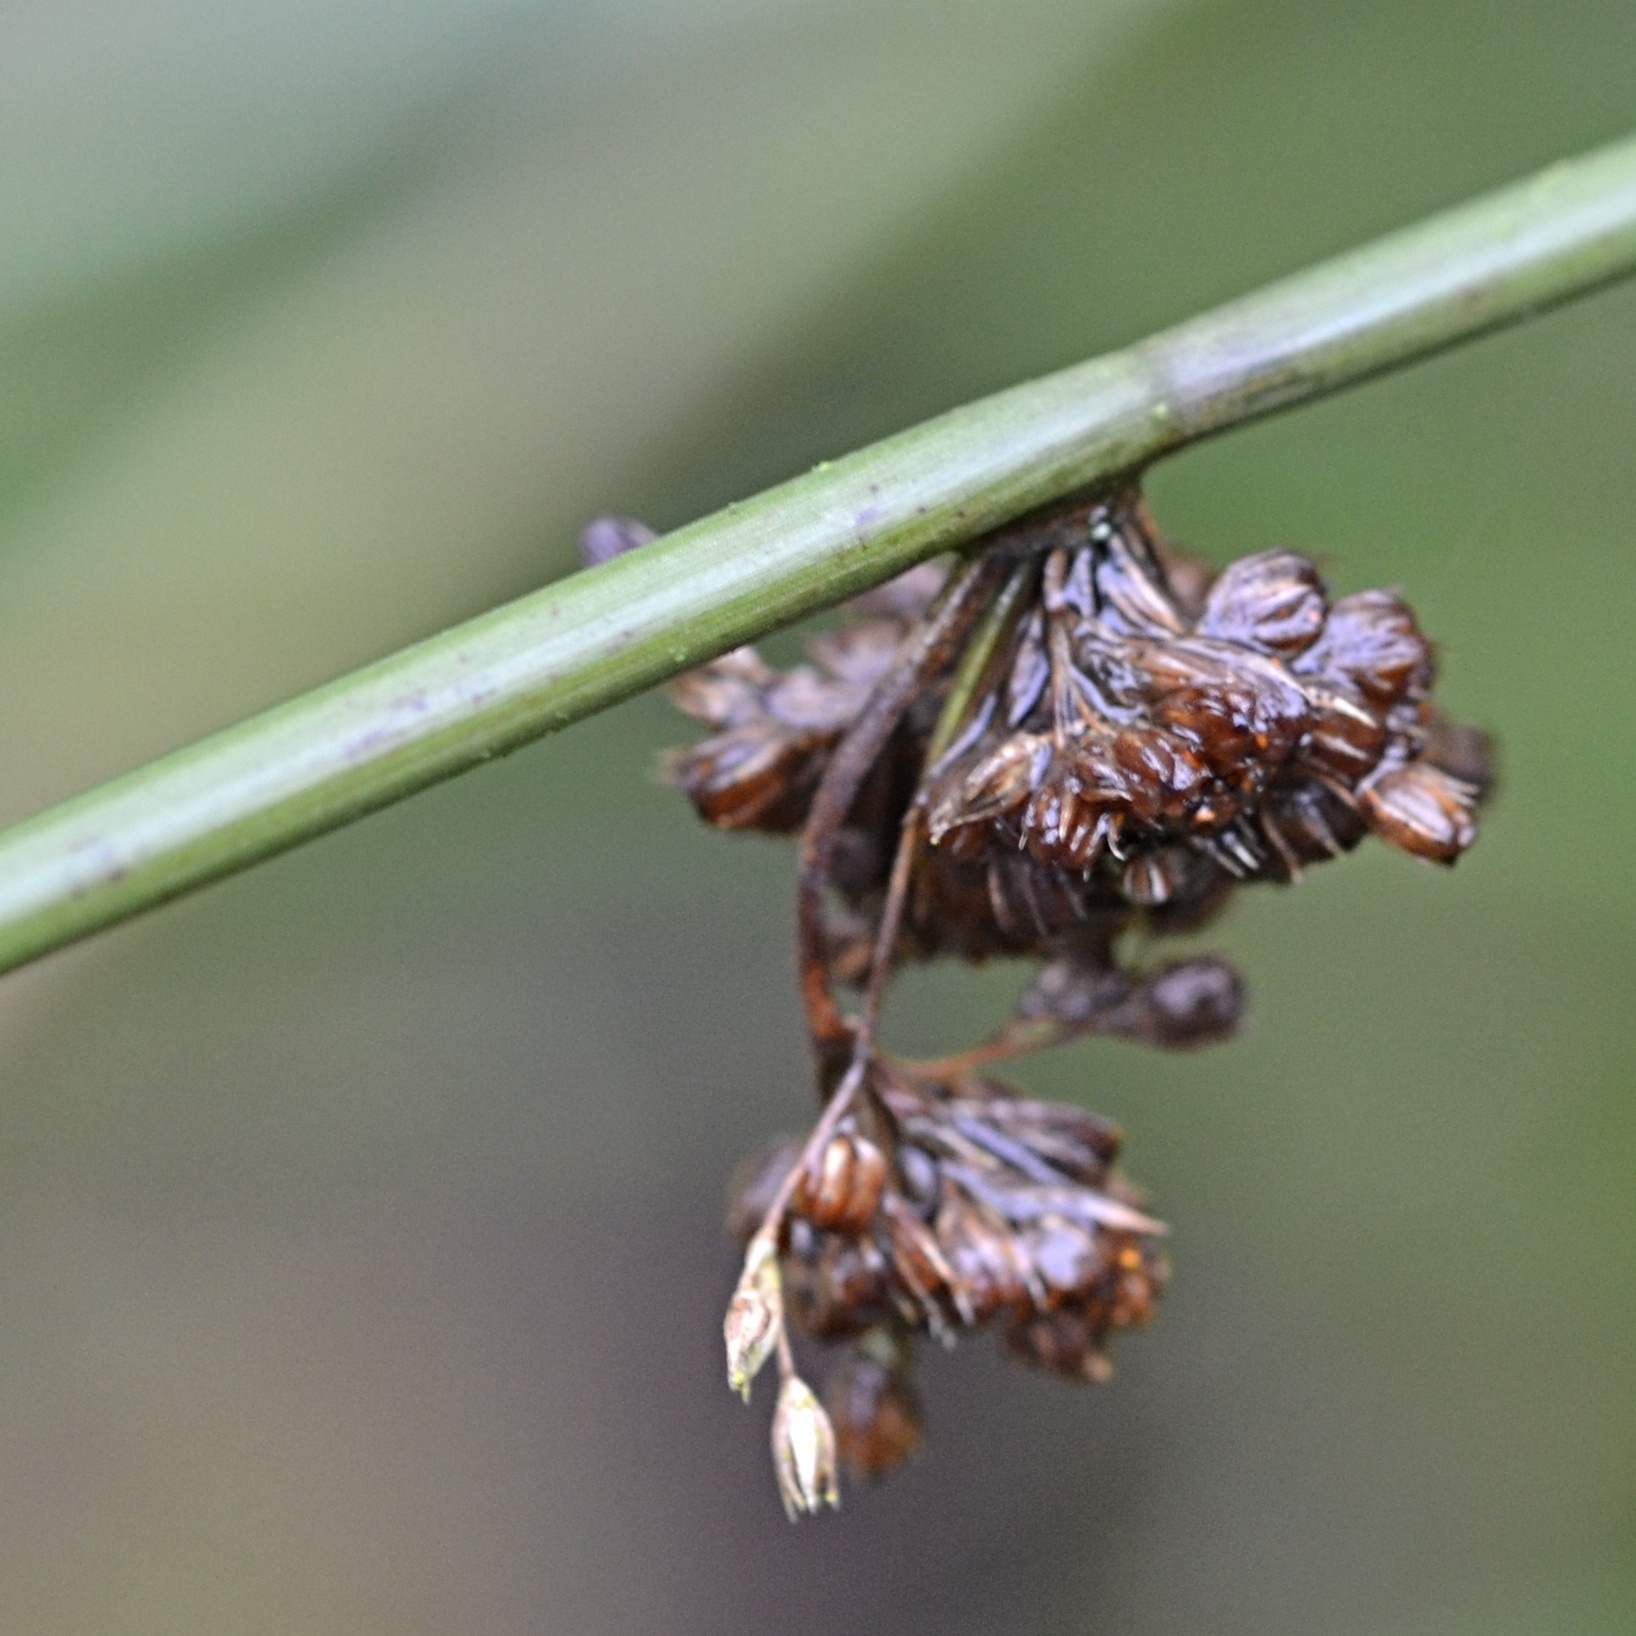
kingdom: Plantae
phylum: Tracheophyta
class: Liliopsida
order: Poales
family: Juncaceae
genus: Juncus
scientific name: Juncus effusus
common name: Soft rush
